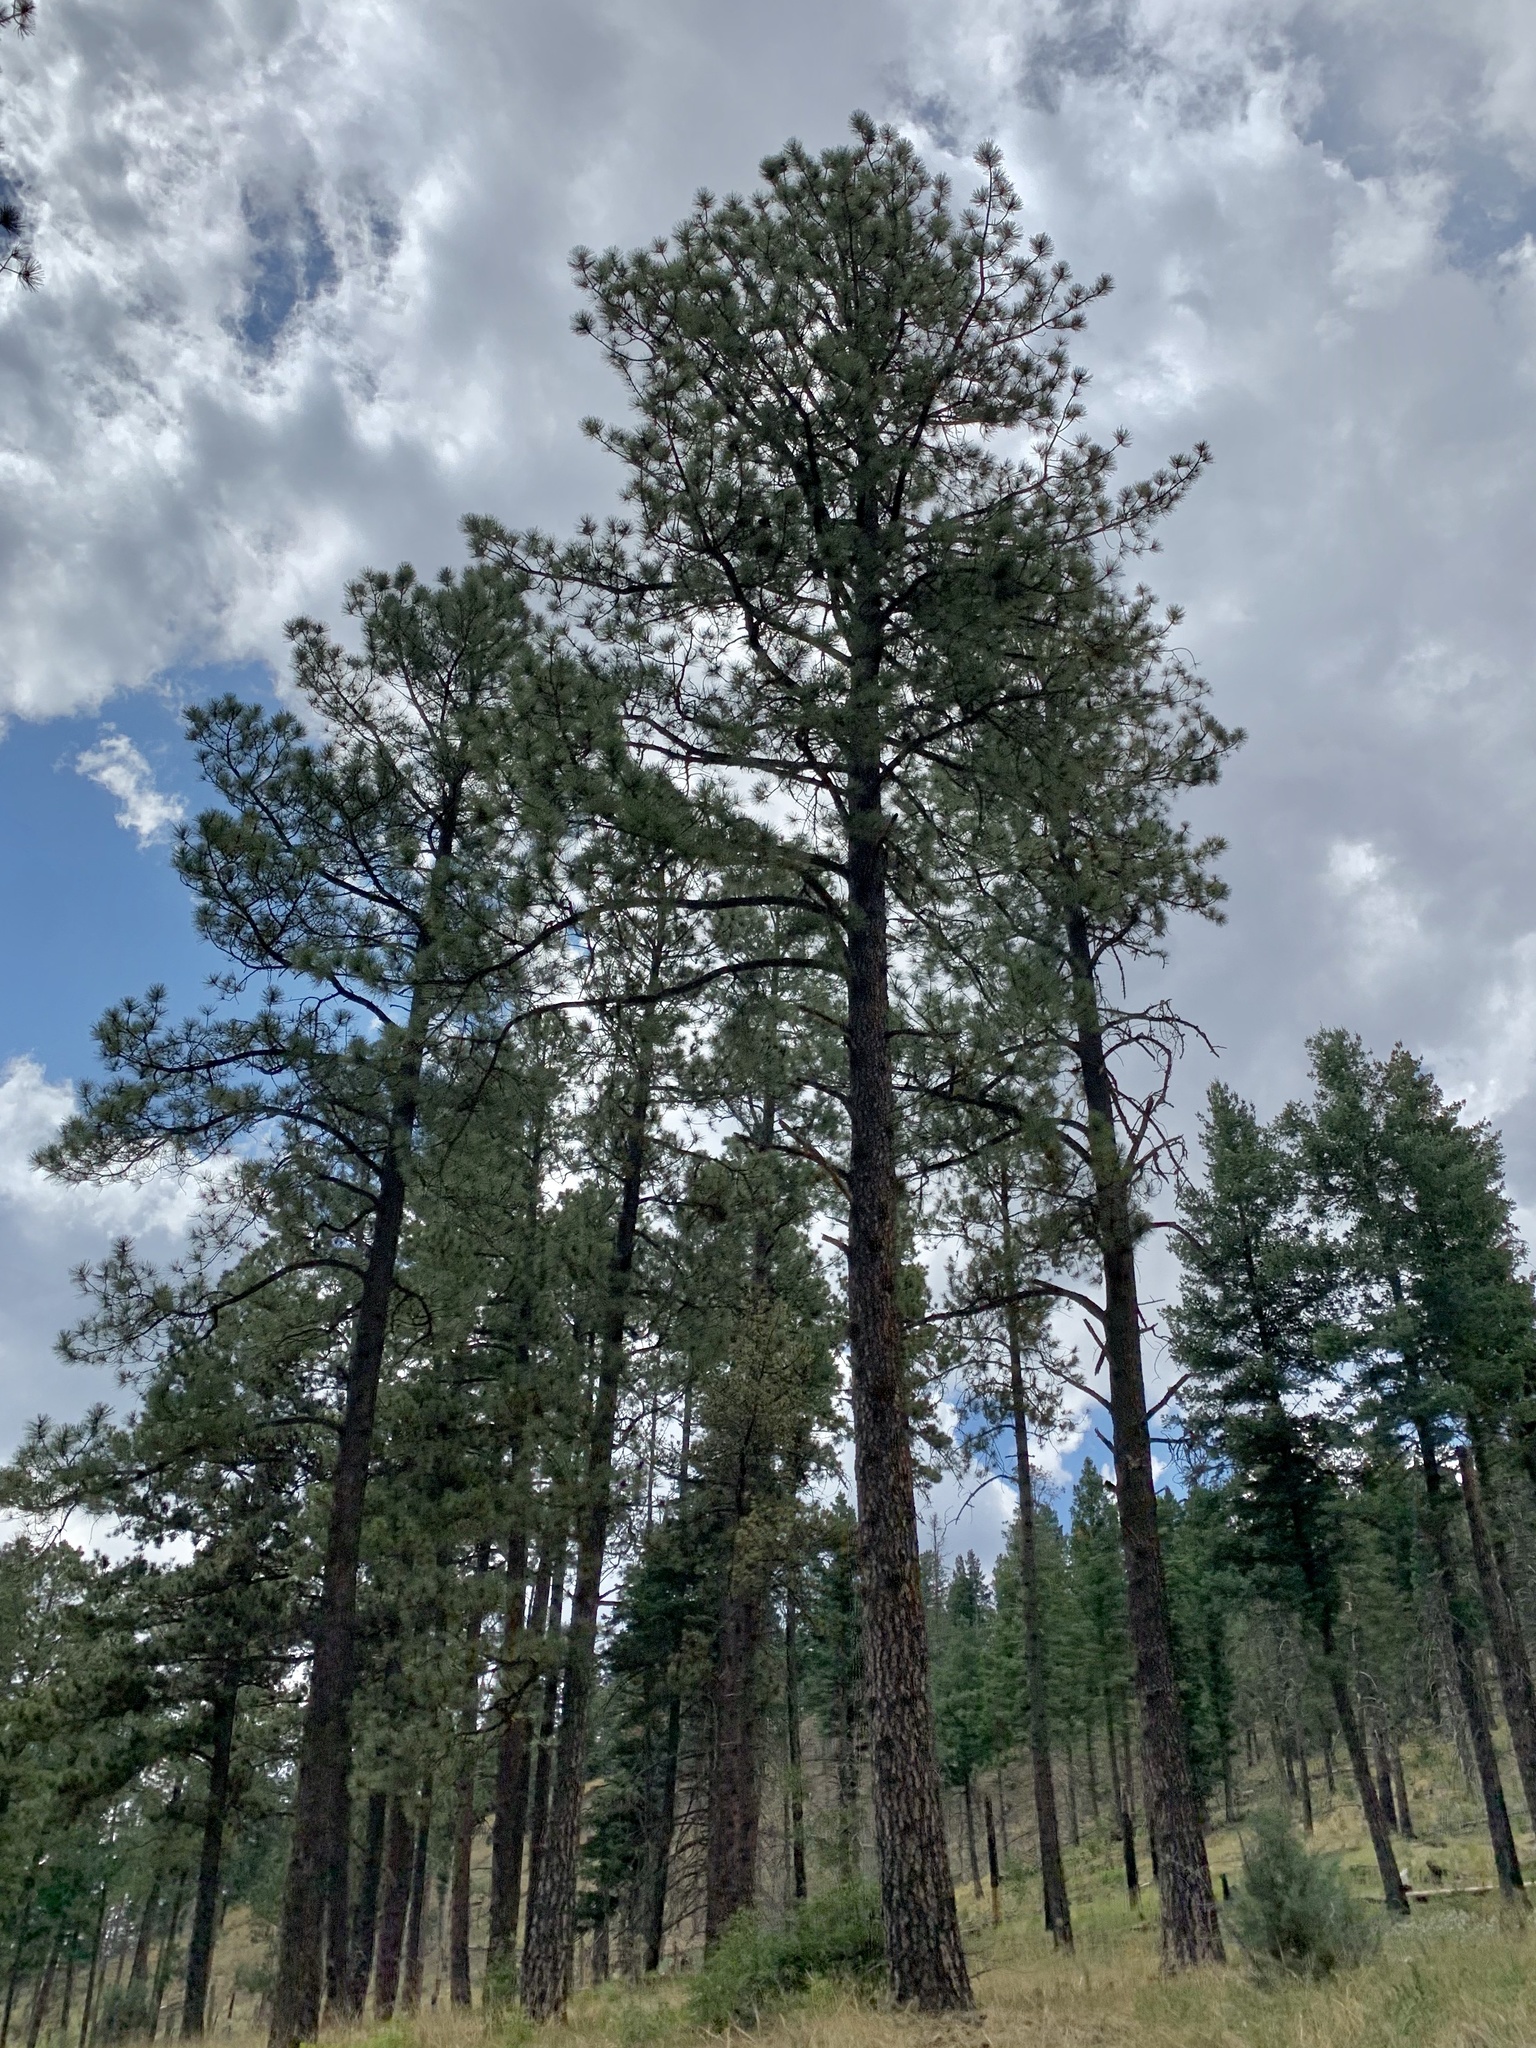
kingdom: Plantae
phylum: Tracheophyta
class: Pinopsida
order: Pinales
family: Pinaceae
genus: Pinus
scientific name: Pinus ponderosa
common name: Western yellow-pine
